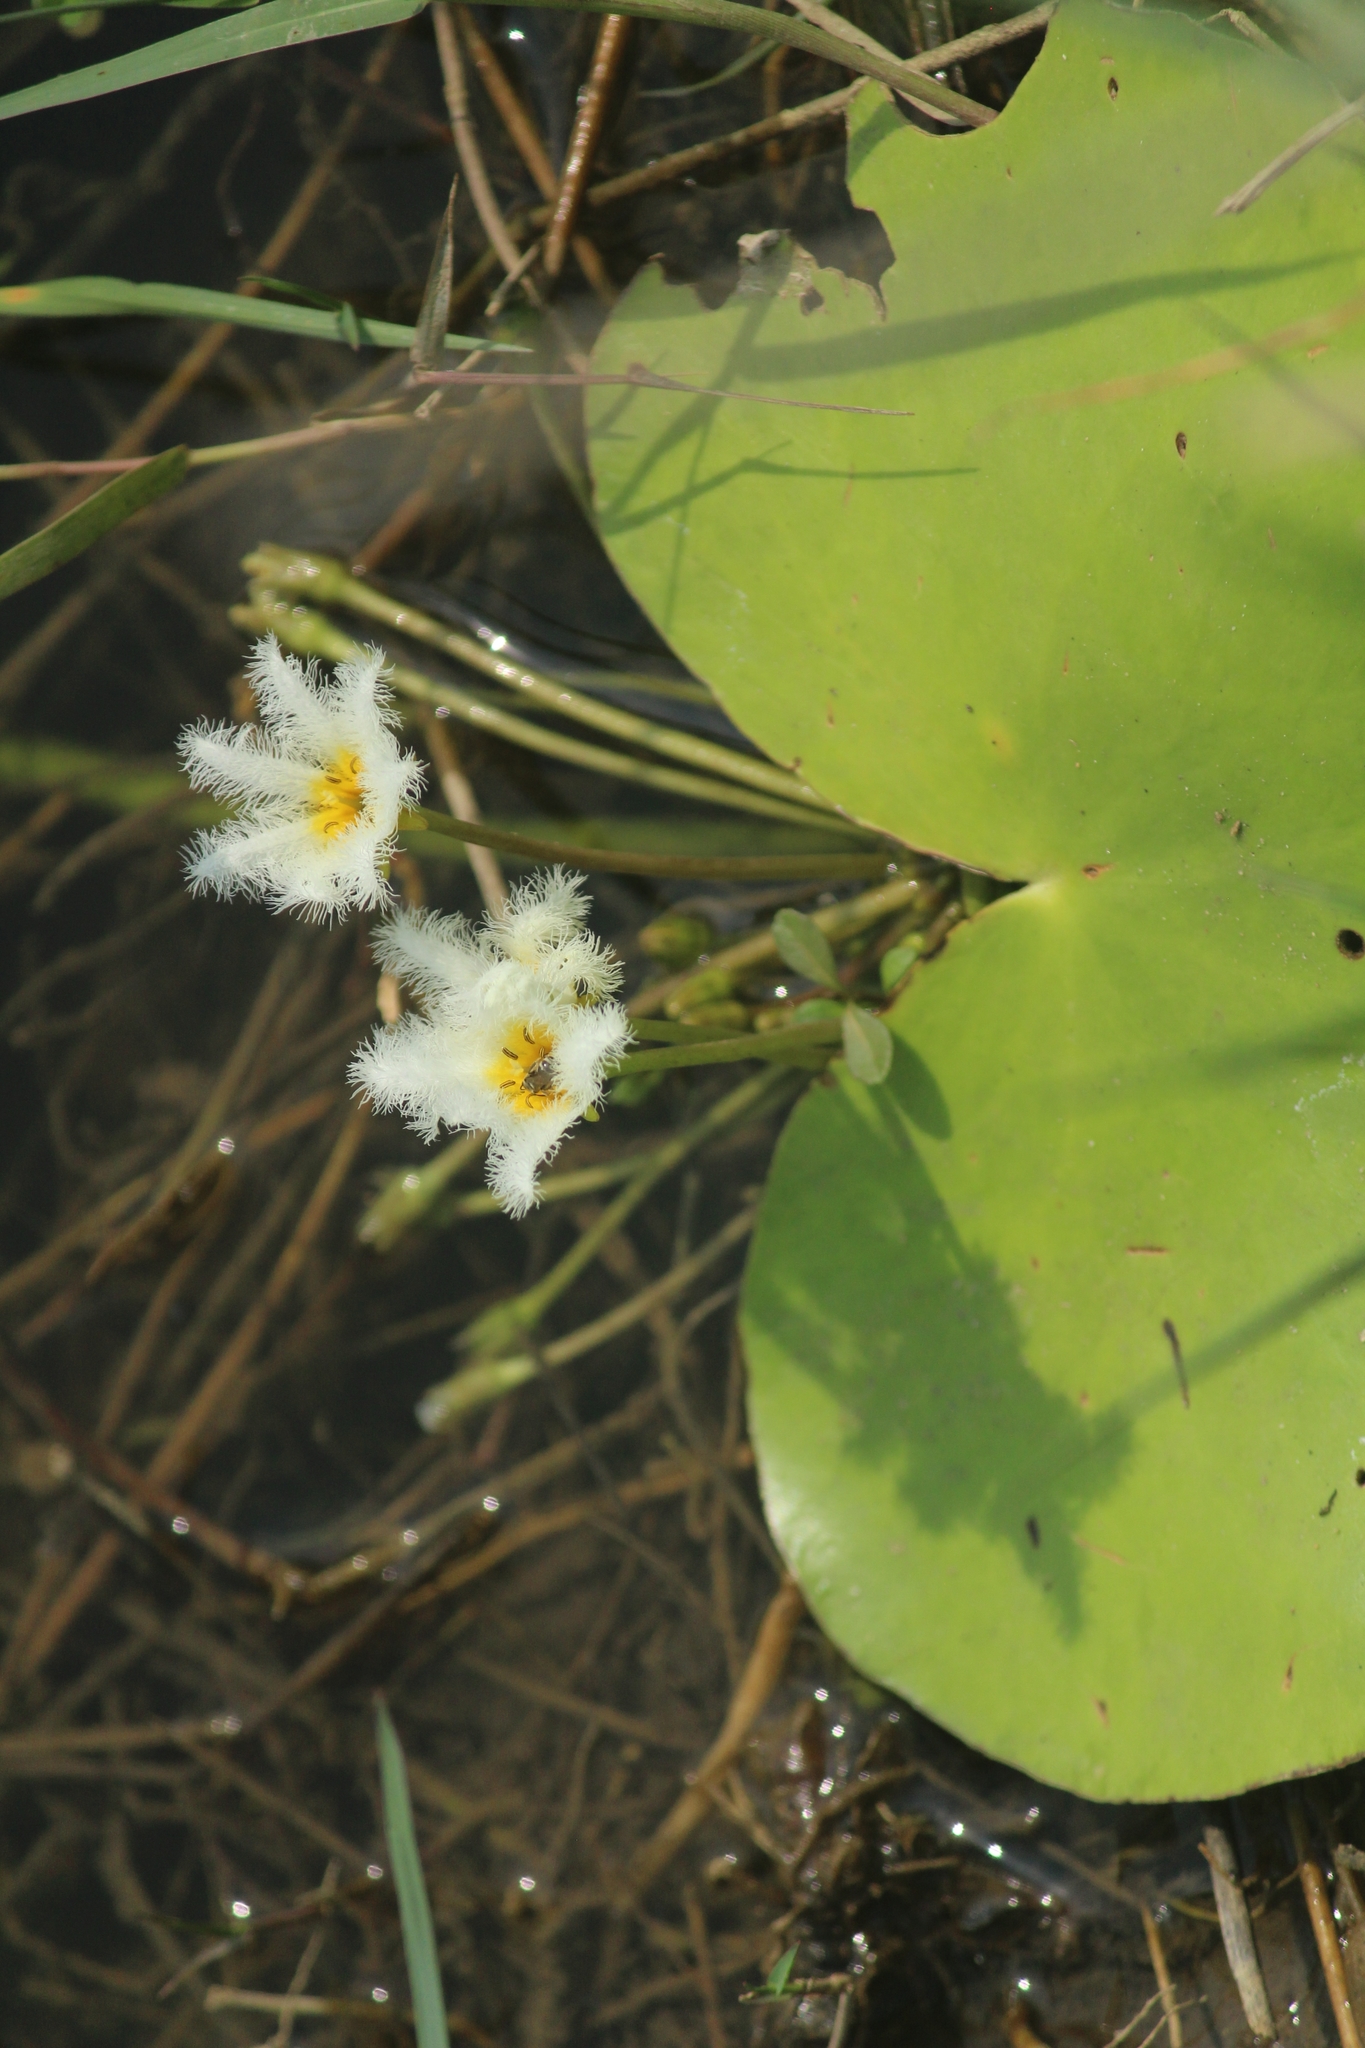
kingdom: Plantae
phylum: Tracheophyta
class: Magnoliopsida
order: Asterales
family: Menyanthaceae
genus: Nymphoides
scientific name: Nymphoides indica
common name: Water-snowflake
